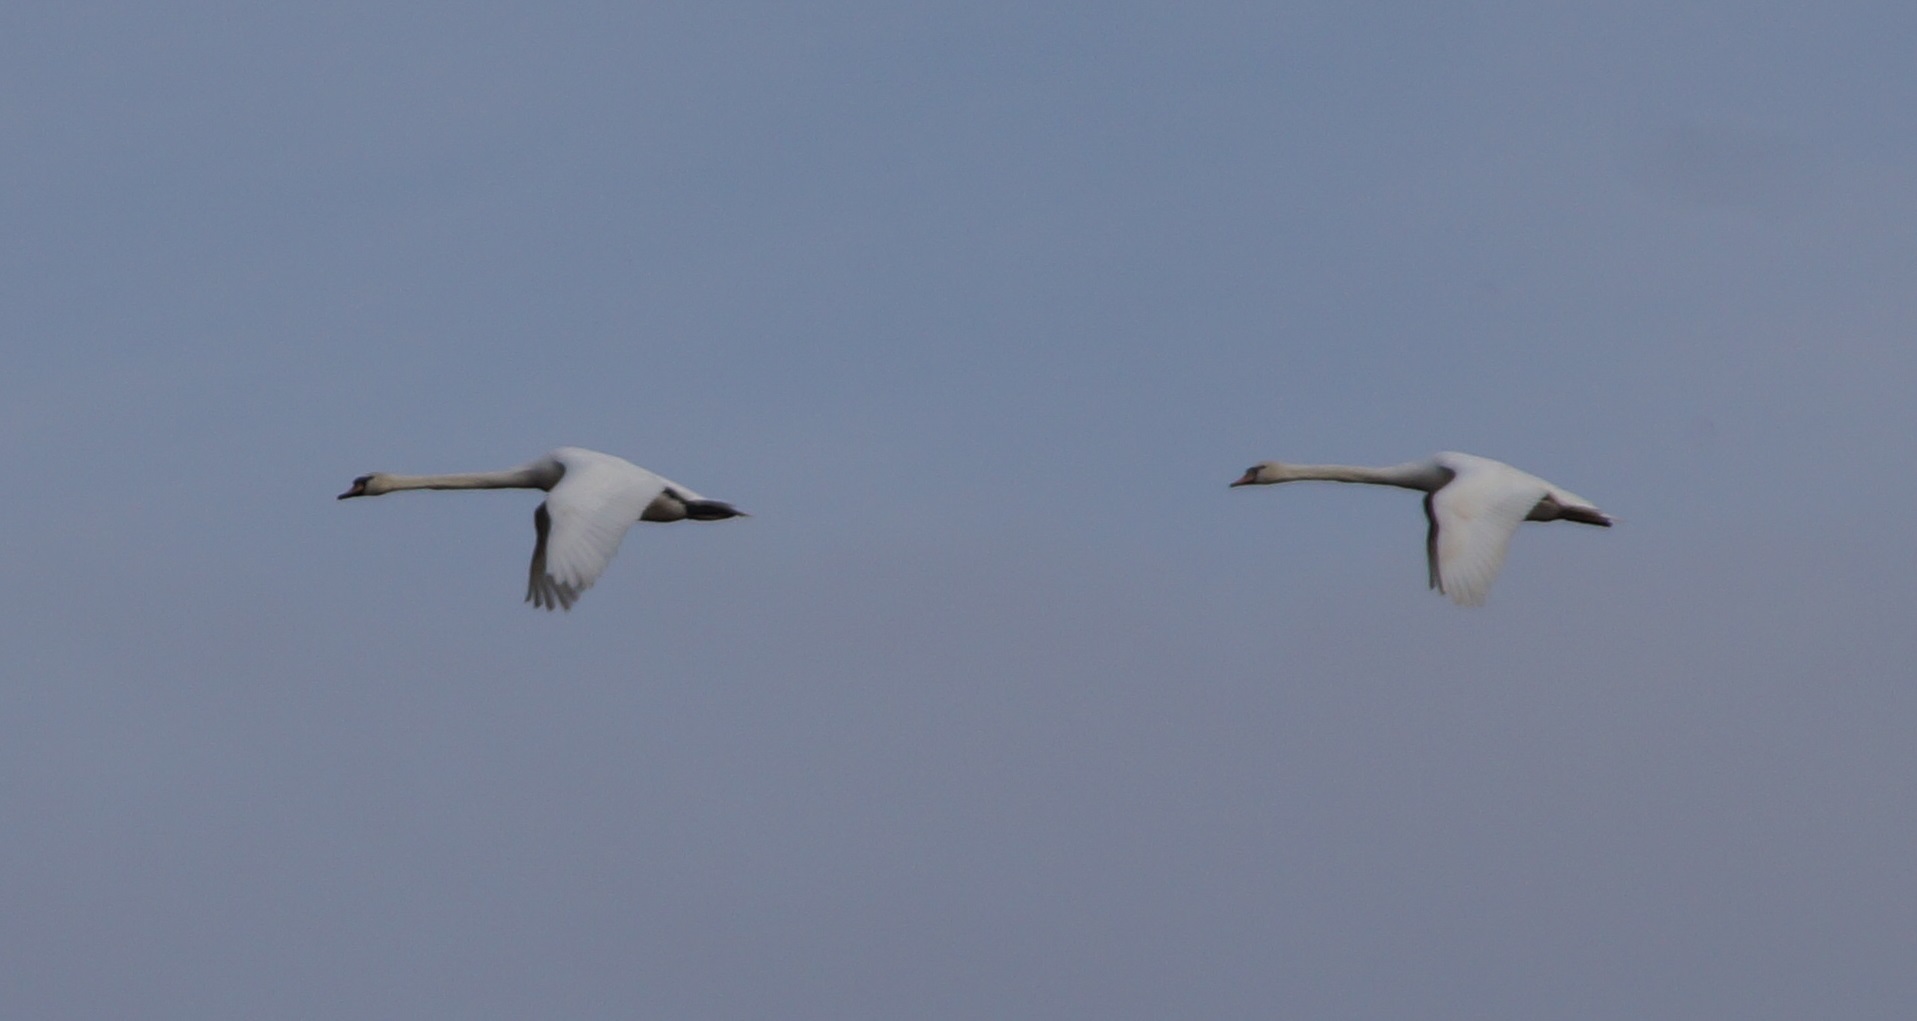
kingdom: Animalia
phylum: Chordata
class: Aves
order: Anseriformes
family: Anatidae
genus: Cygnus
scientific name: Cygnus olor
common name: Mute swan
